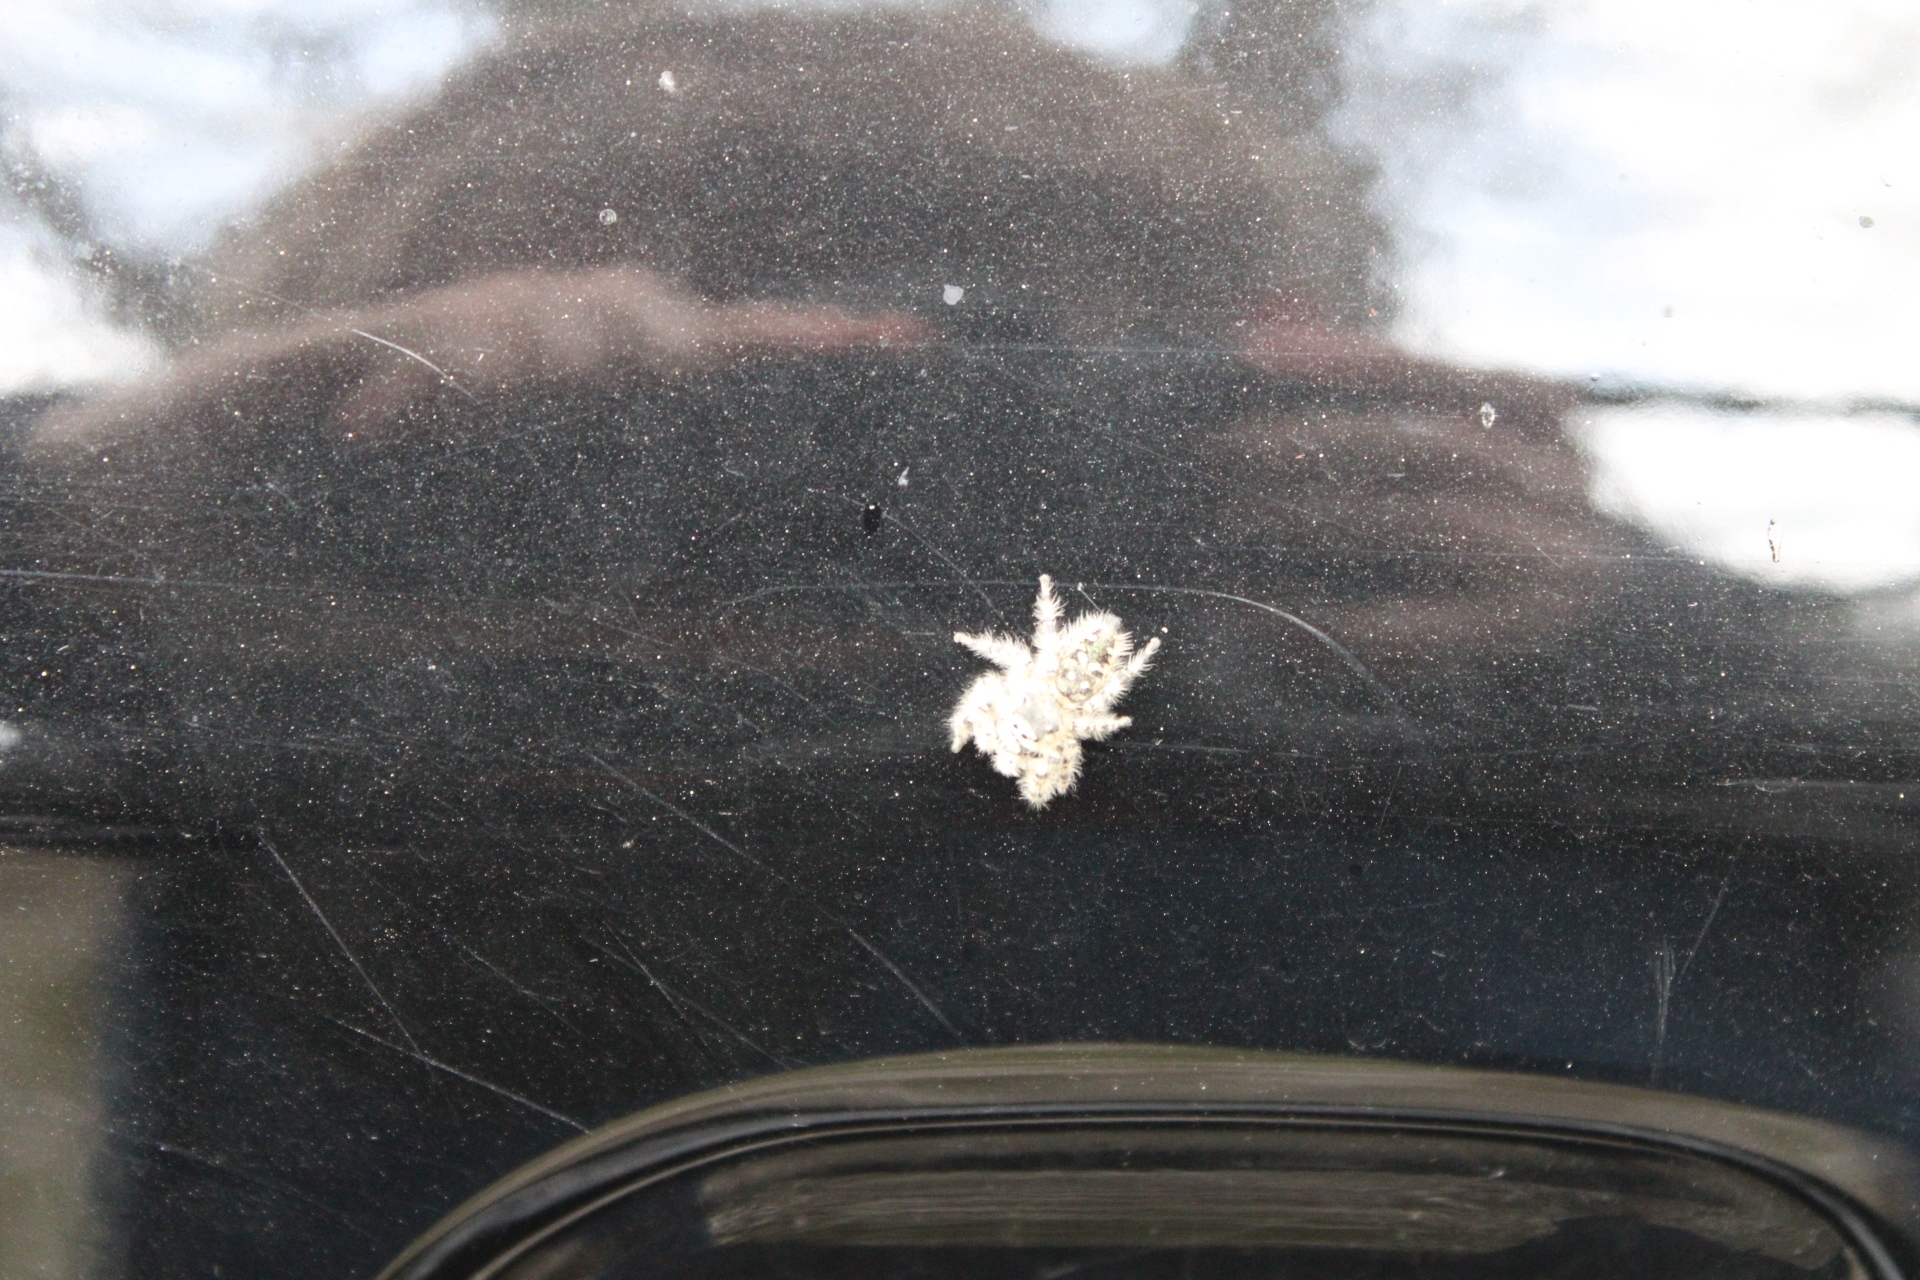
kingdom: Animalia
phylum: Arthropoda
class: Arachnida
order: Araneae
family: Salticidae
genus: Phidippus
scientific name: Phidippus otiosus
